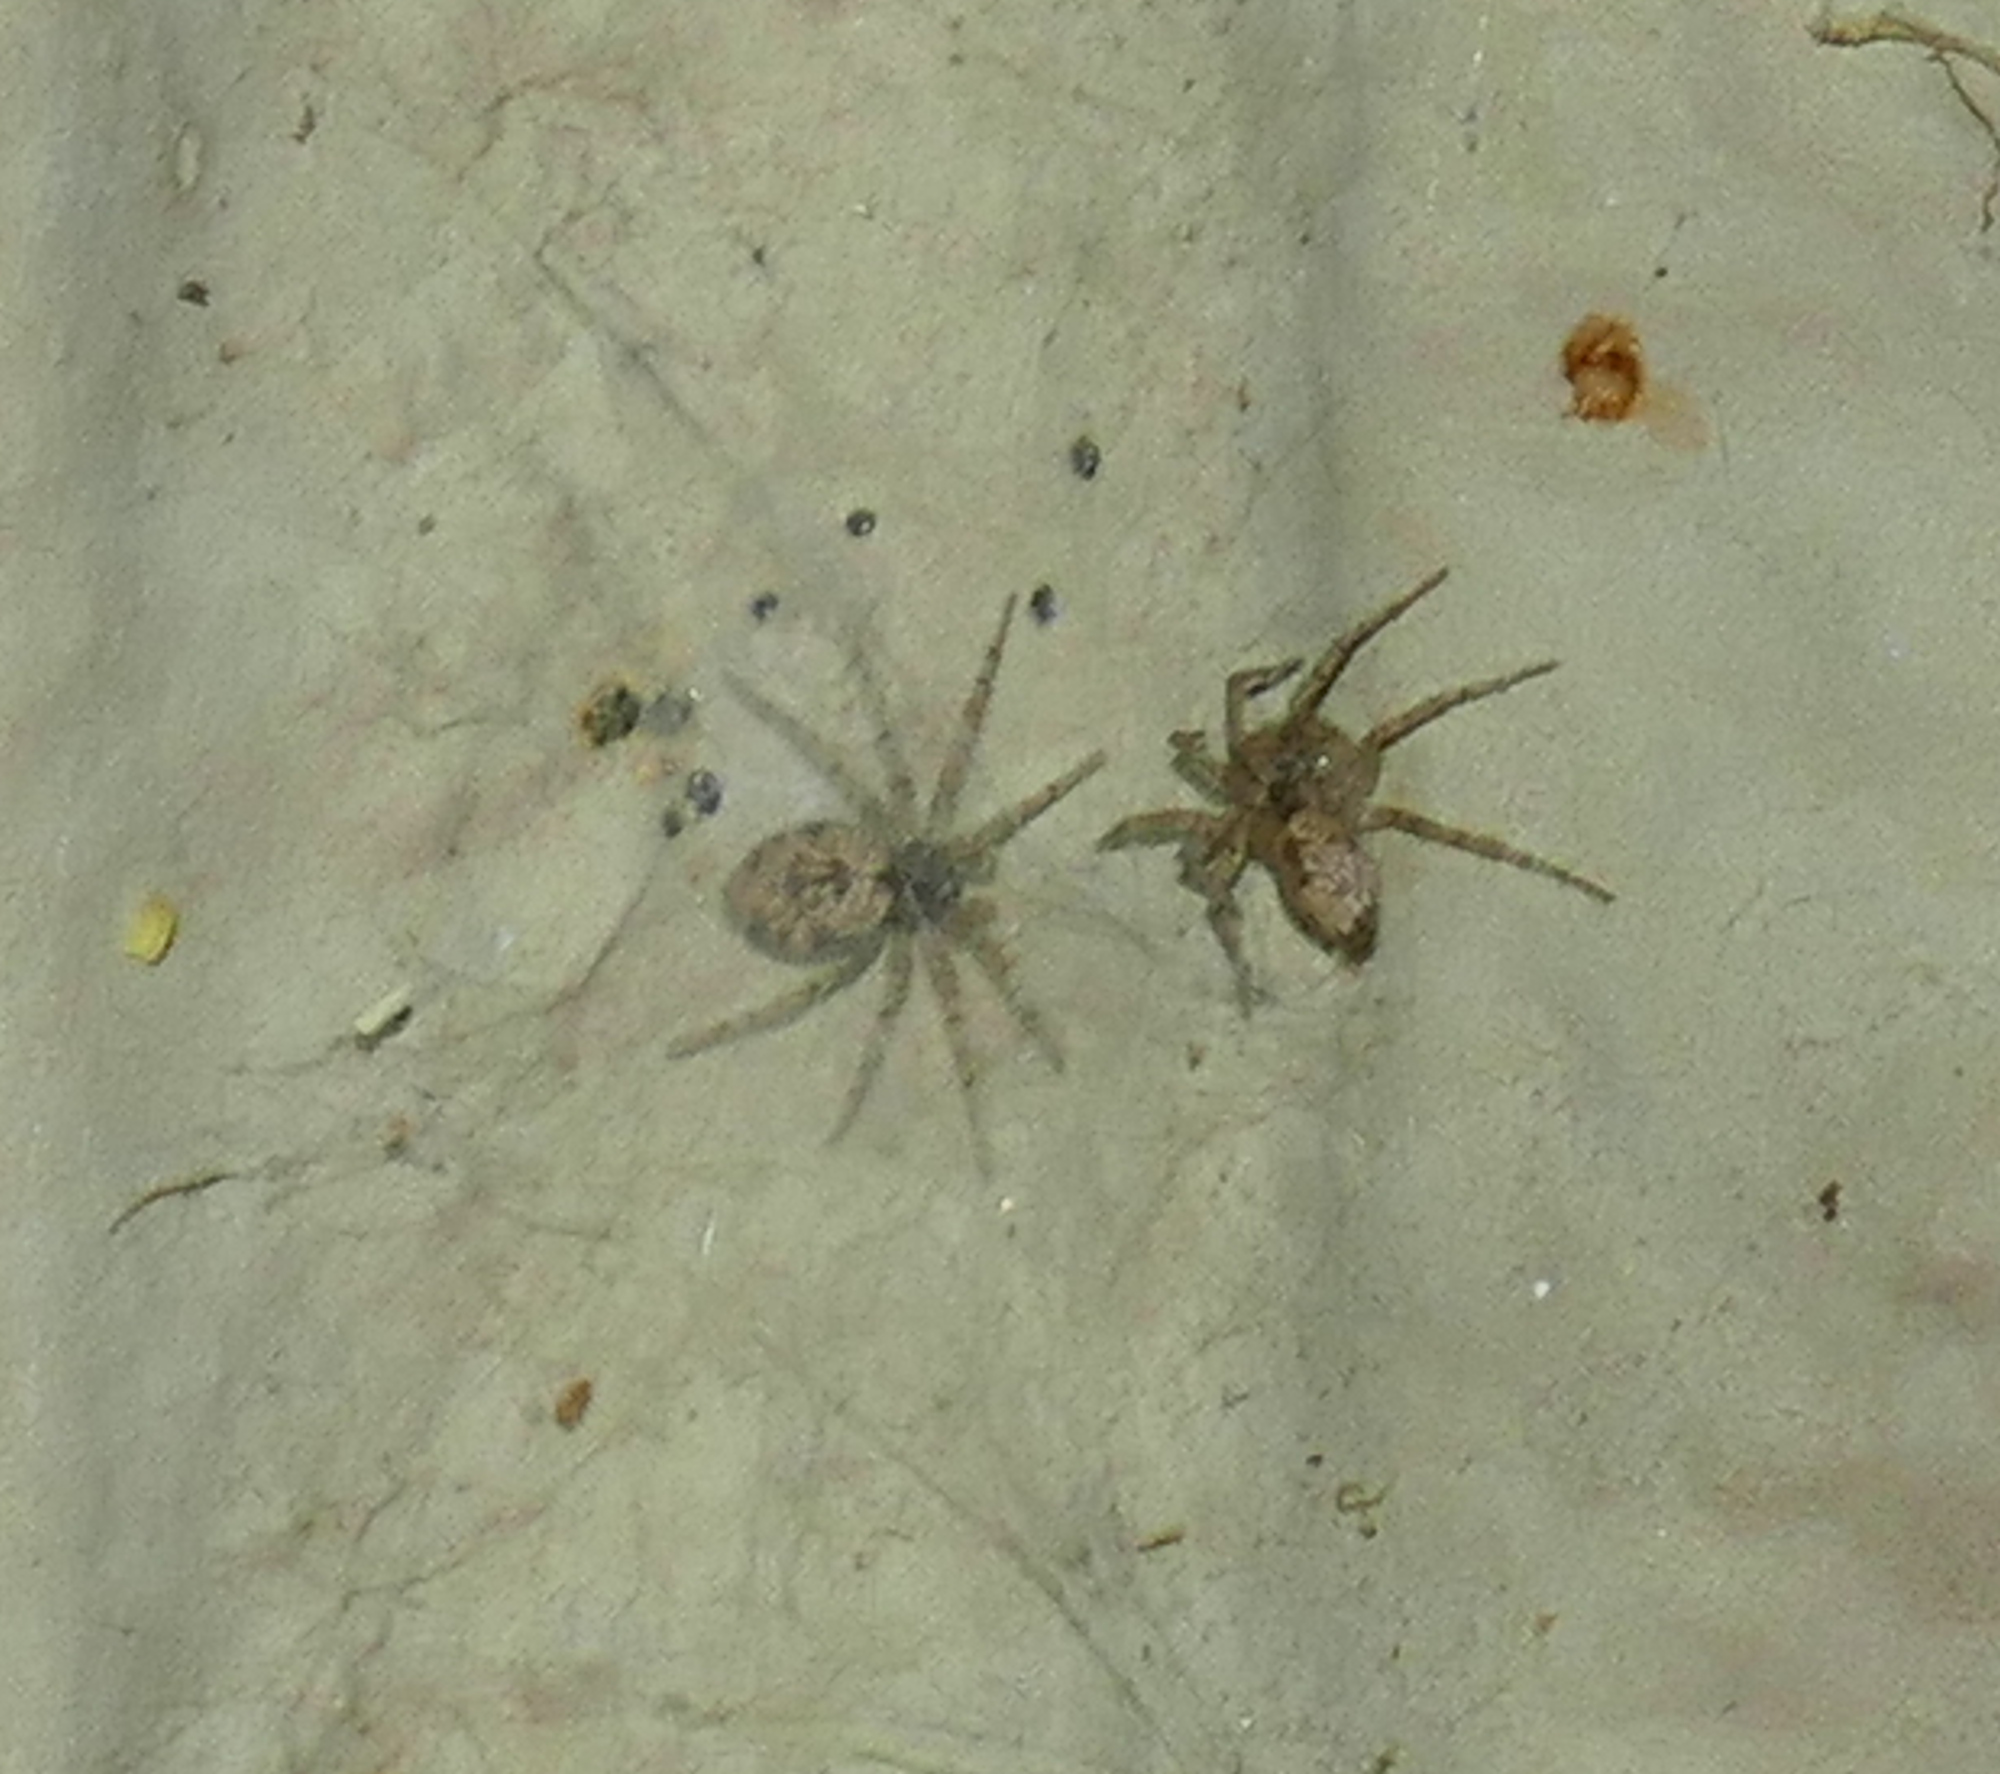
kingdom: Animalia
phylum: Arthropoda
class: Arachnida
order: Araneae
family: Oecobiidae
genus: Oecobius
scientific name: Oecobius
